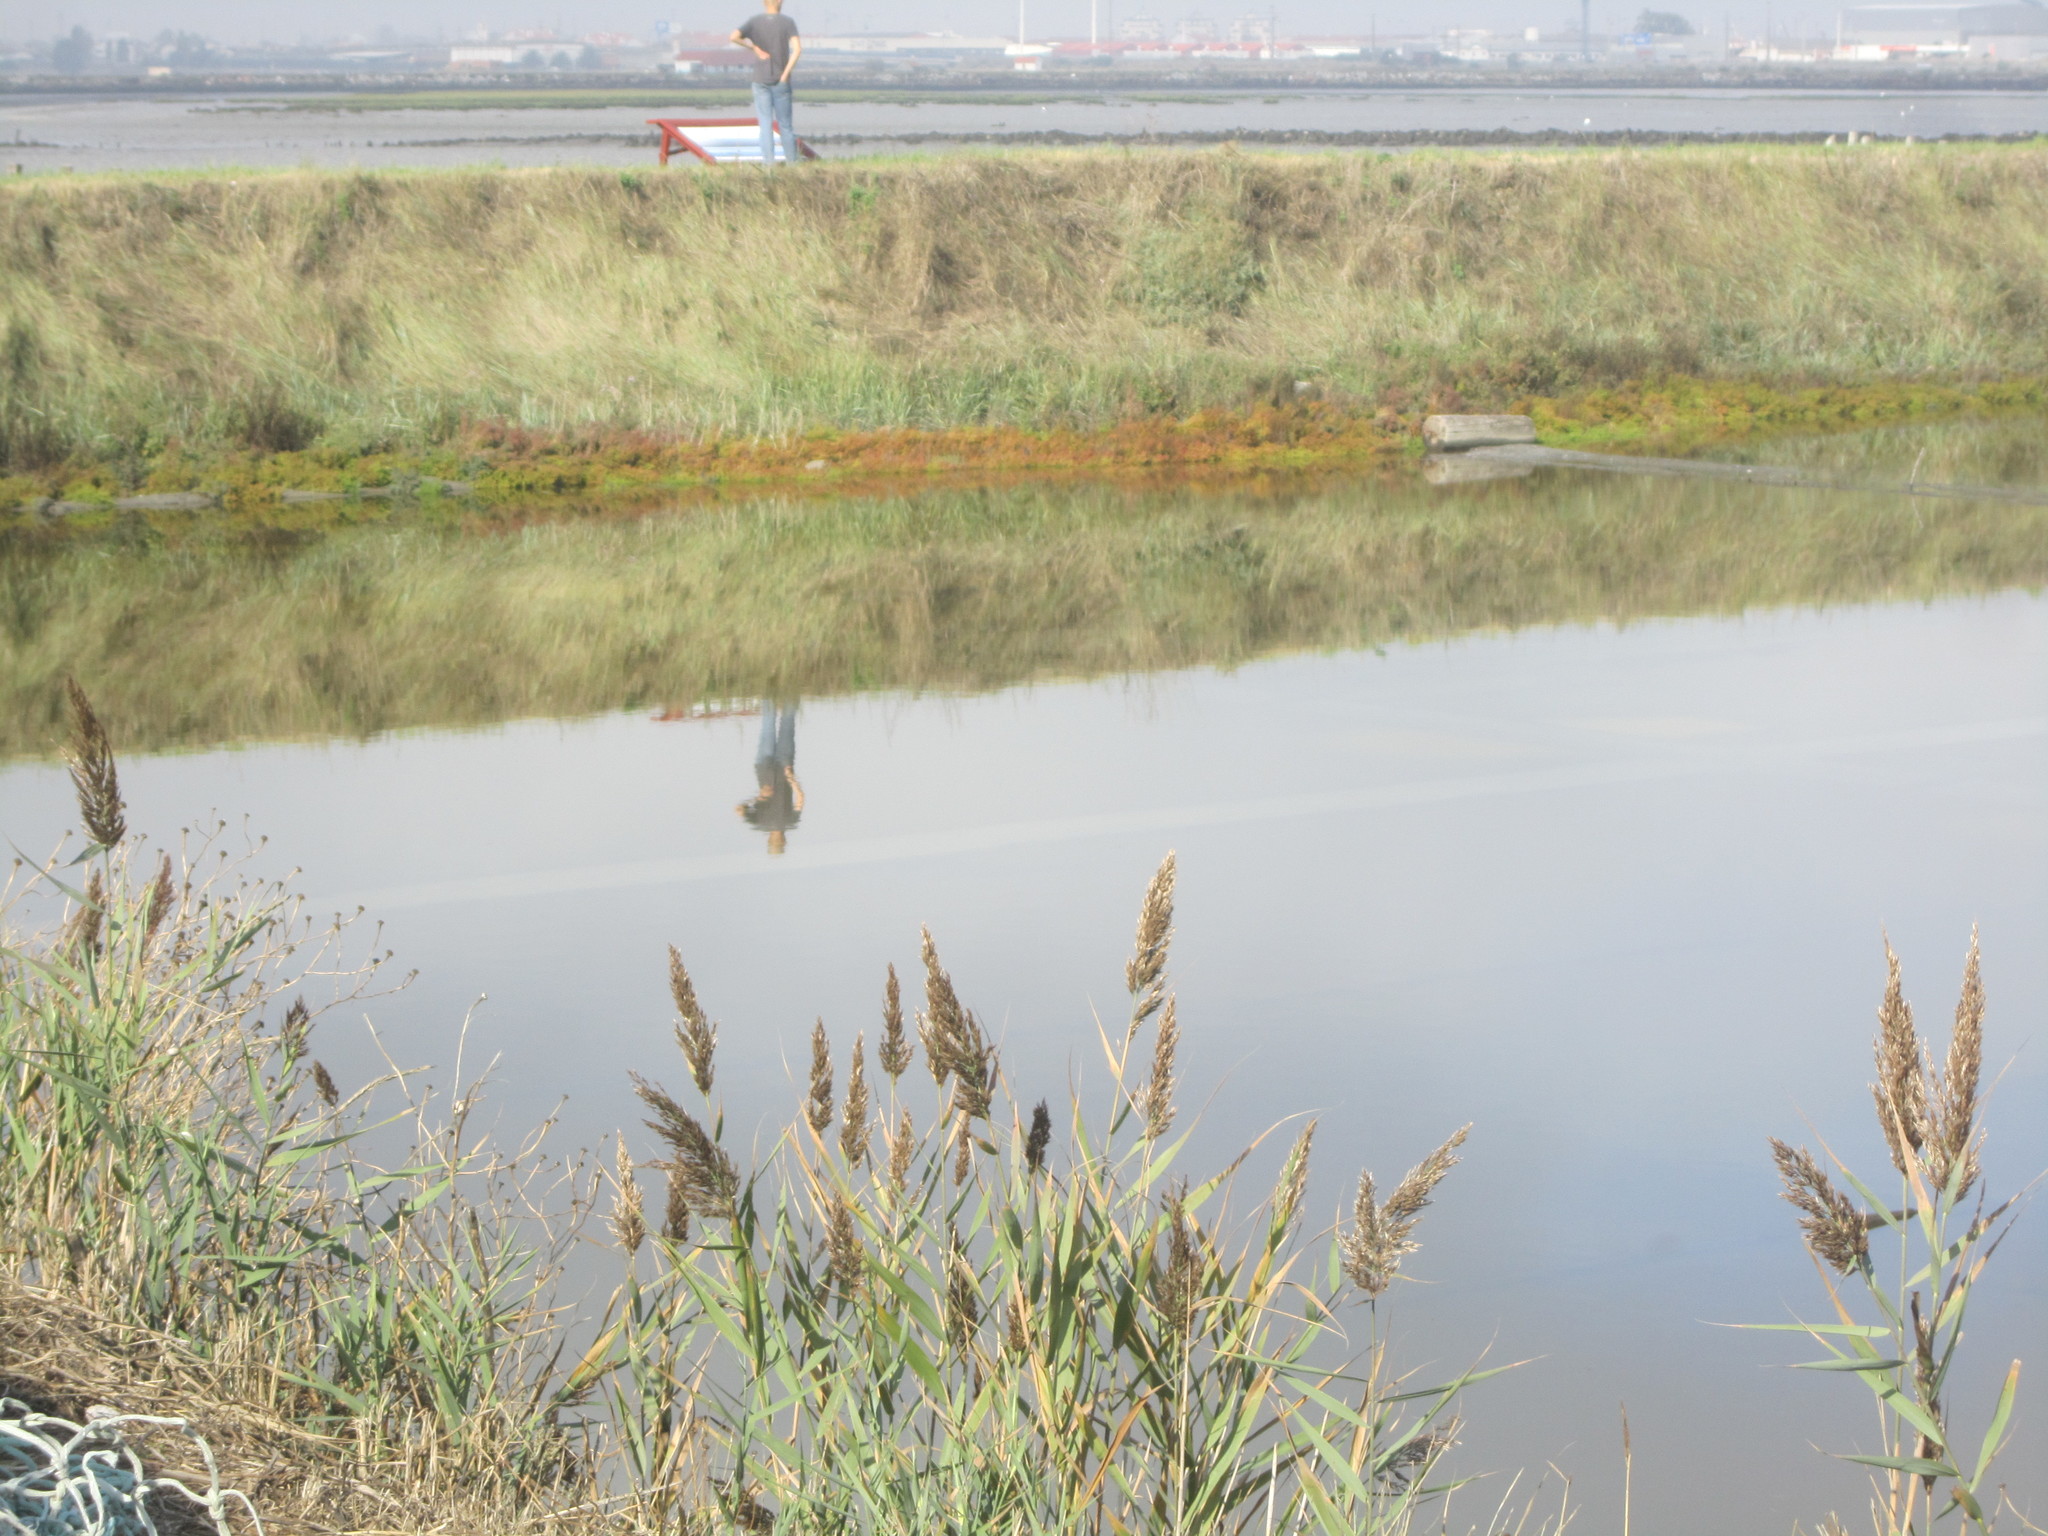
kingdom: Plantae
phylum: Tracheophyta
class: Liliopsida
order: Poales
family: Poaceae
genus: Phragmites
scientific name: Phragmites australis
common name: Common reed
